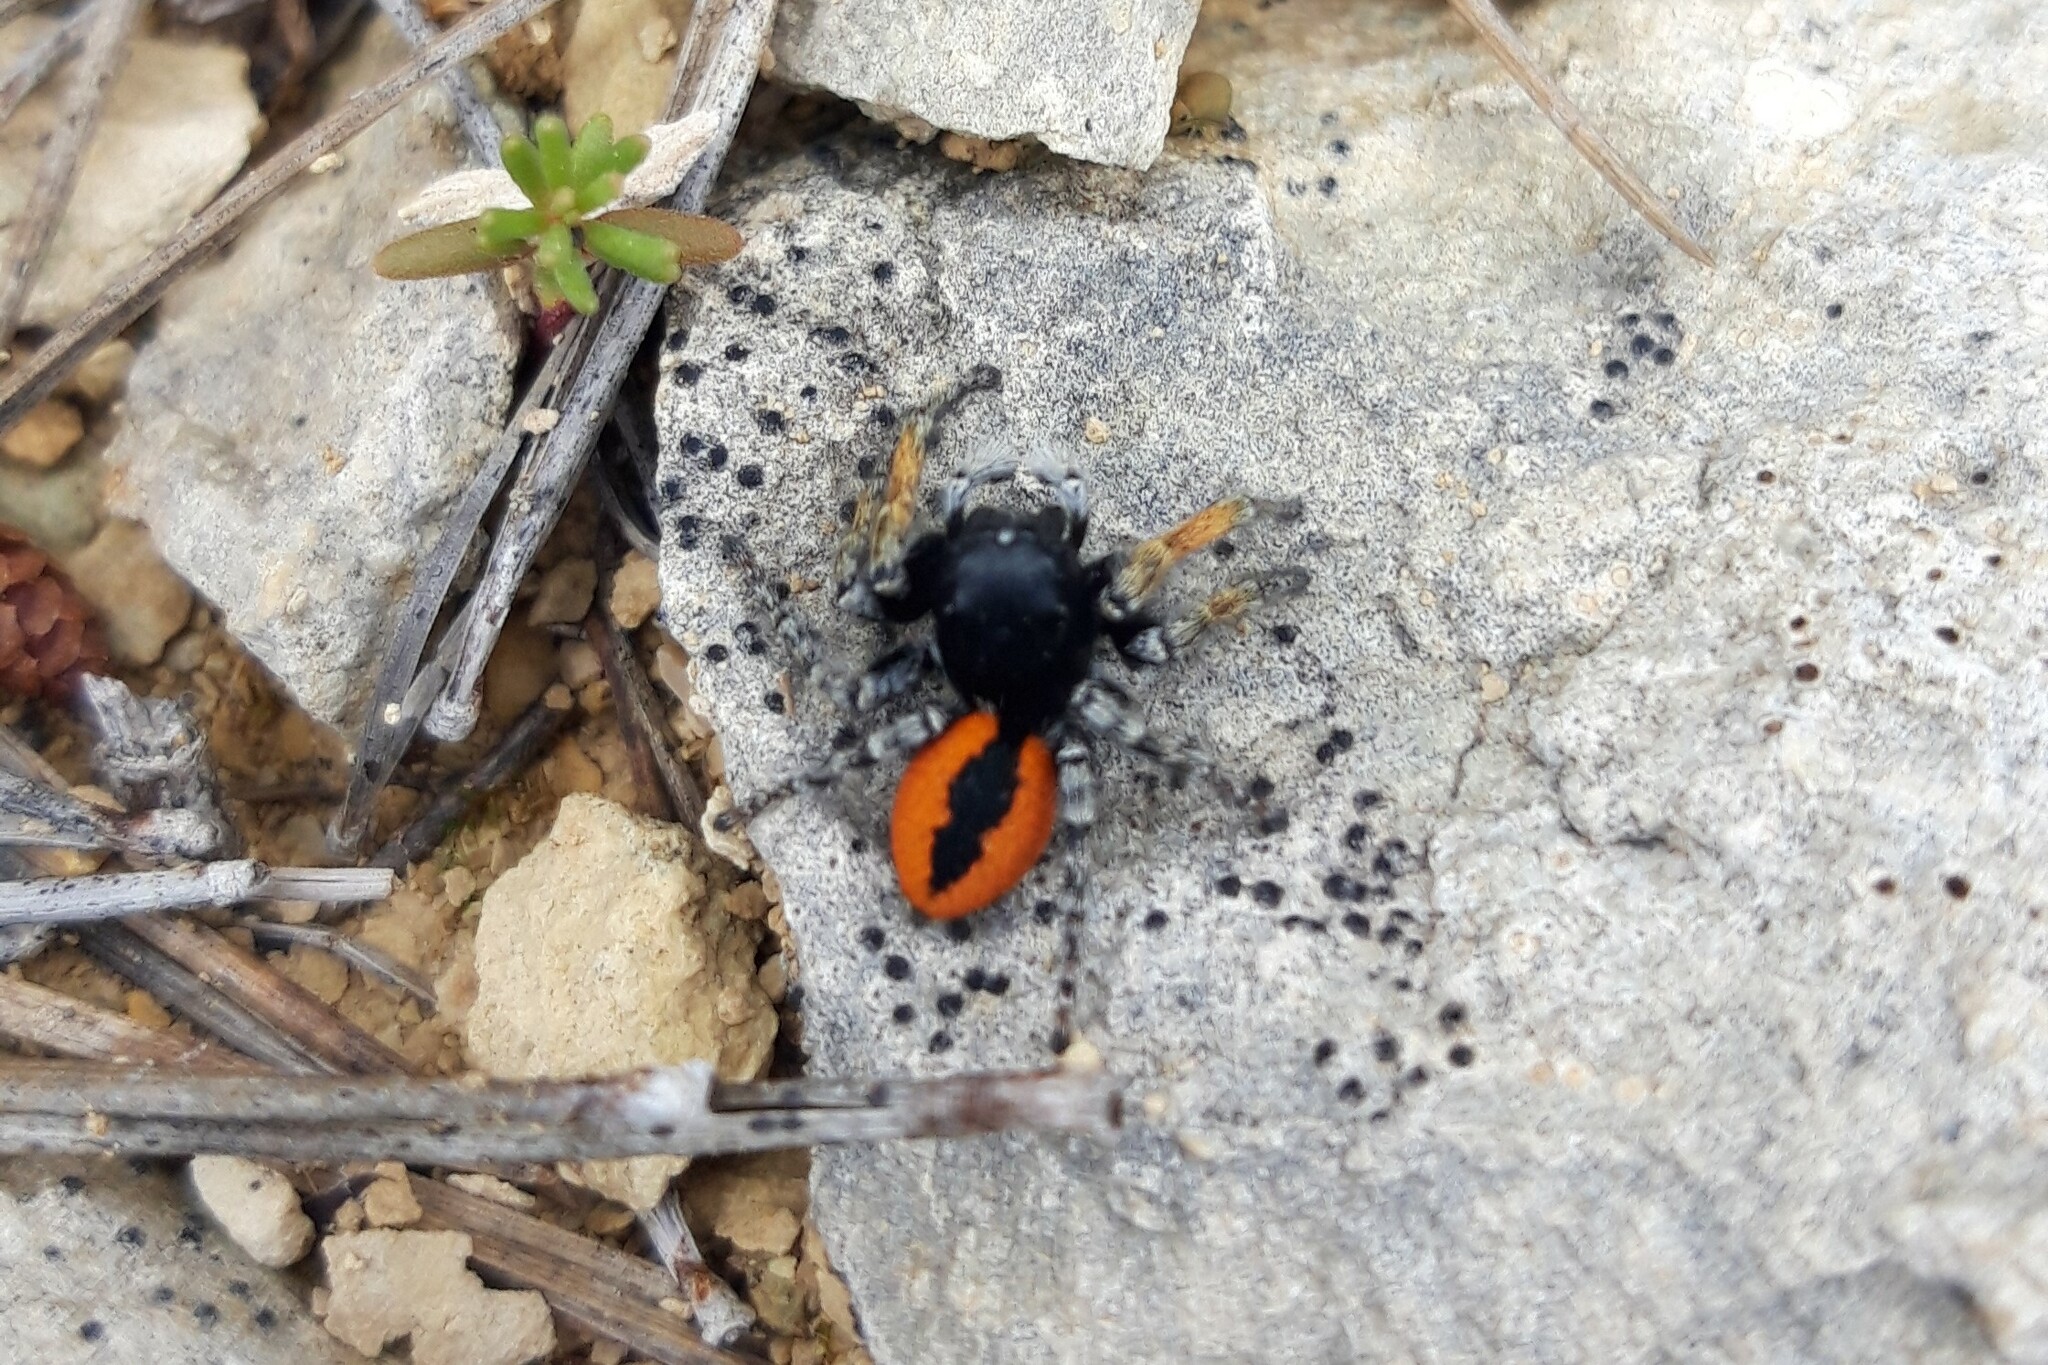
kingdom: Animalia
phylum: Arthropoda
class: Arachnida
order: Araneae
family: Salticidae
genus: Philaeus
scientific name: Philaeus chrysops
